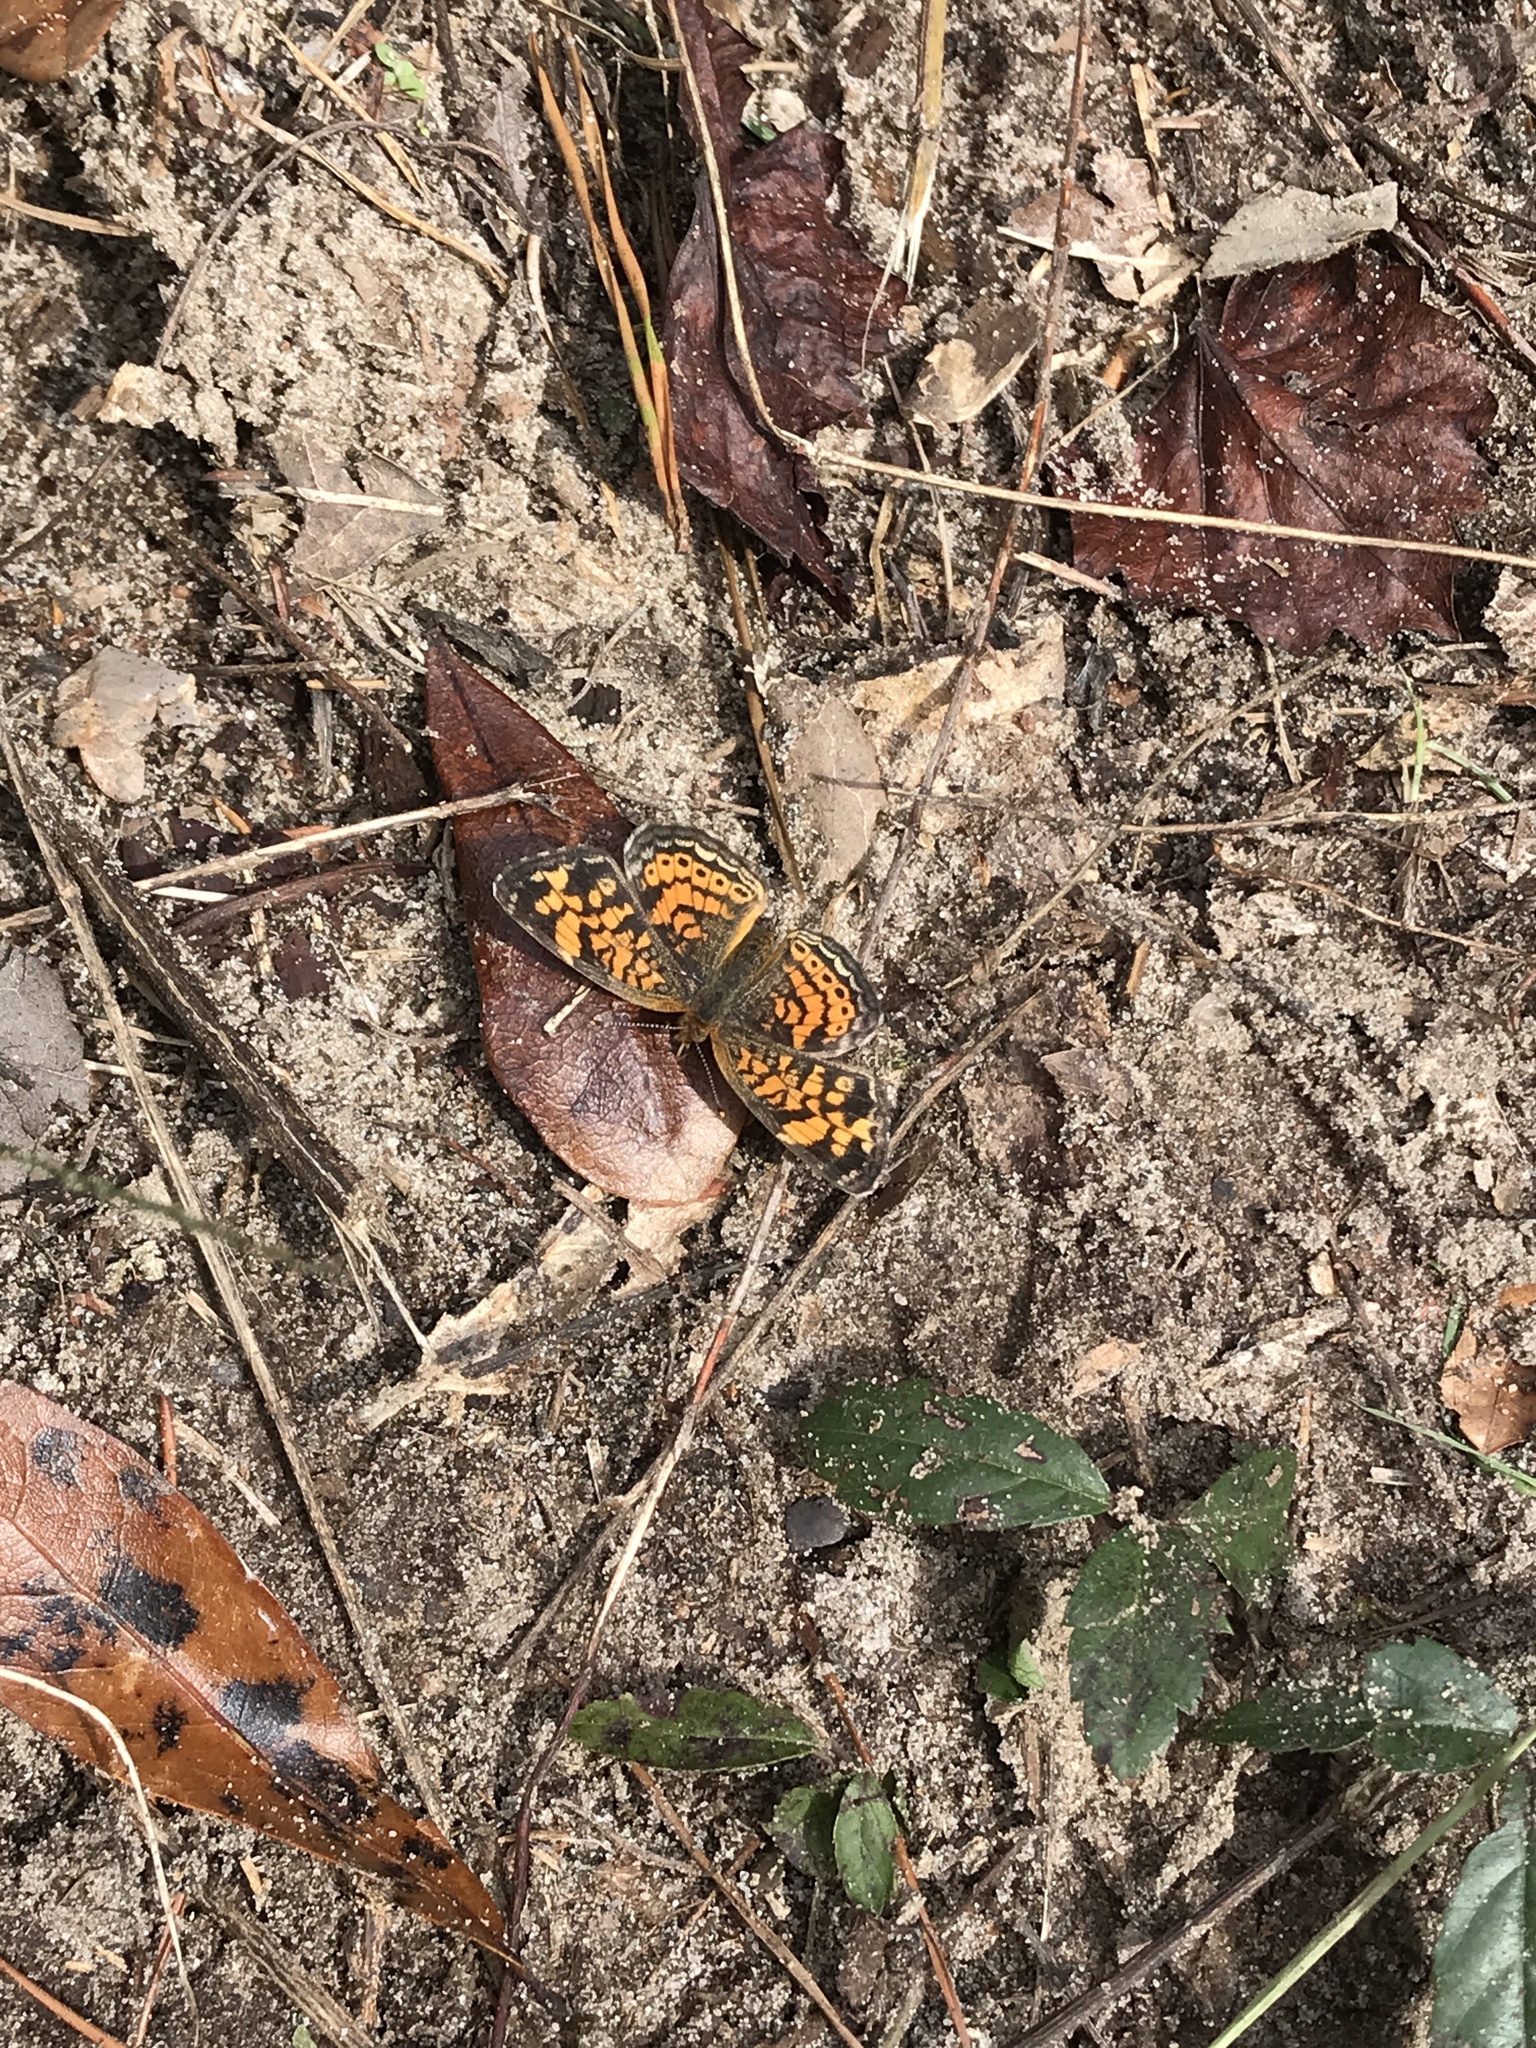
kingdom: Animalia
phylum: Arthropoda
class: Insecta
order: Lepidoptera
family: Nymphalidae
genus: Phyciodes
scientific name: Phyciodes tharos
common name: Pearl crescent
